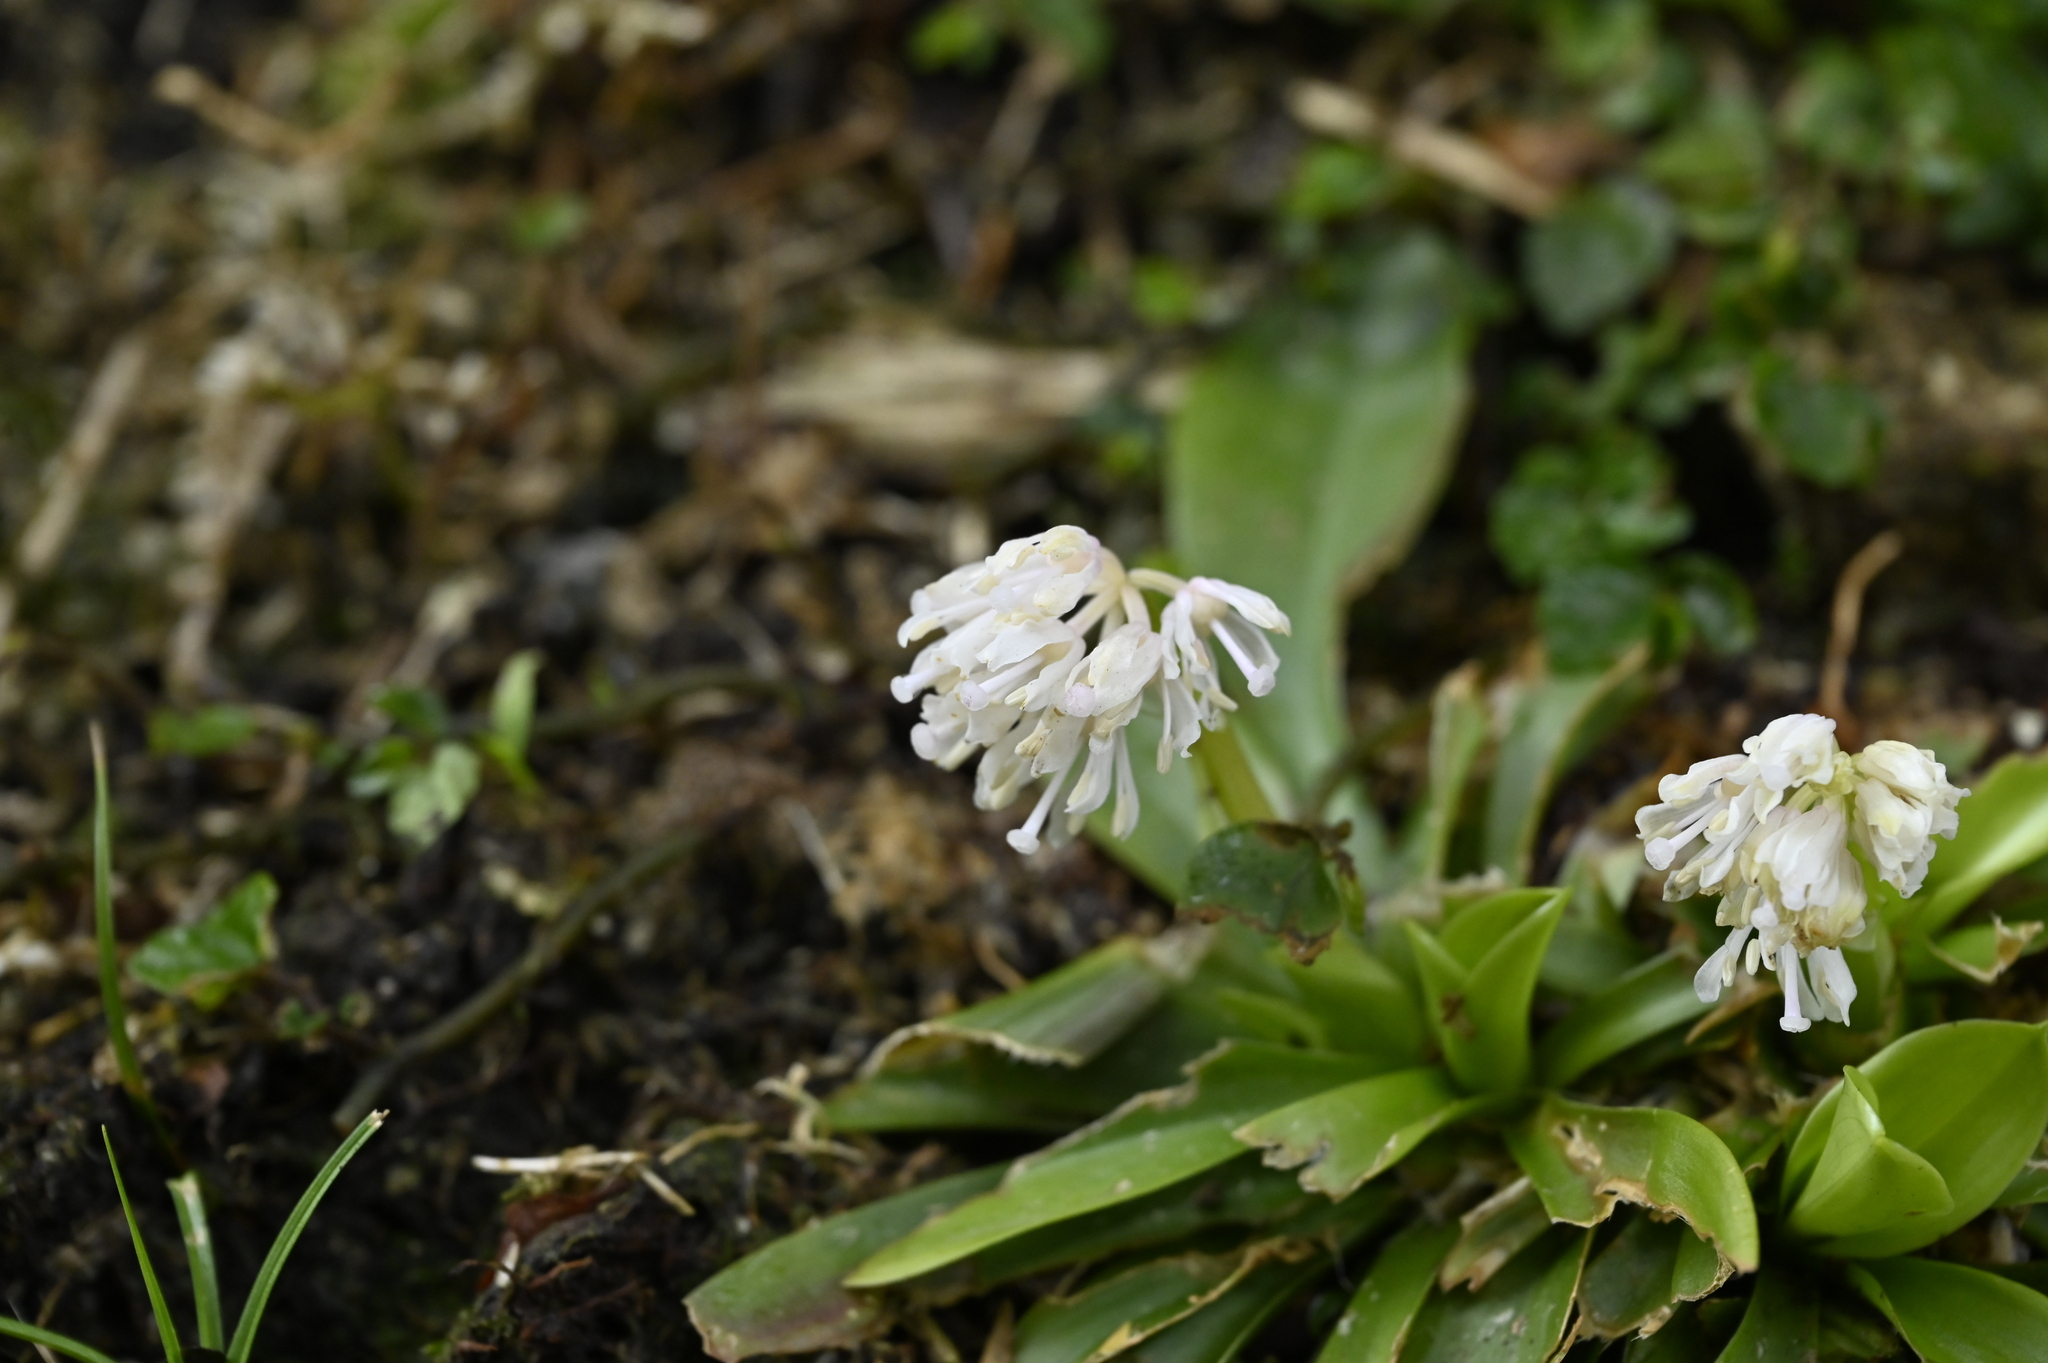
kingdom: Plantae
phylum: Tracheophyta
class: Liliopsida
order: Liliales
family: Melanthiaceae
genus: Helonias
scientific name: Helonias umbellata
